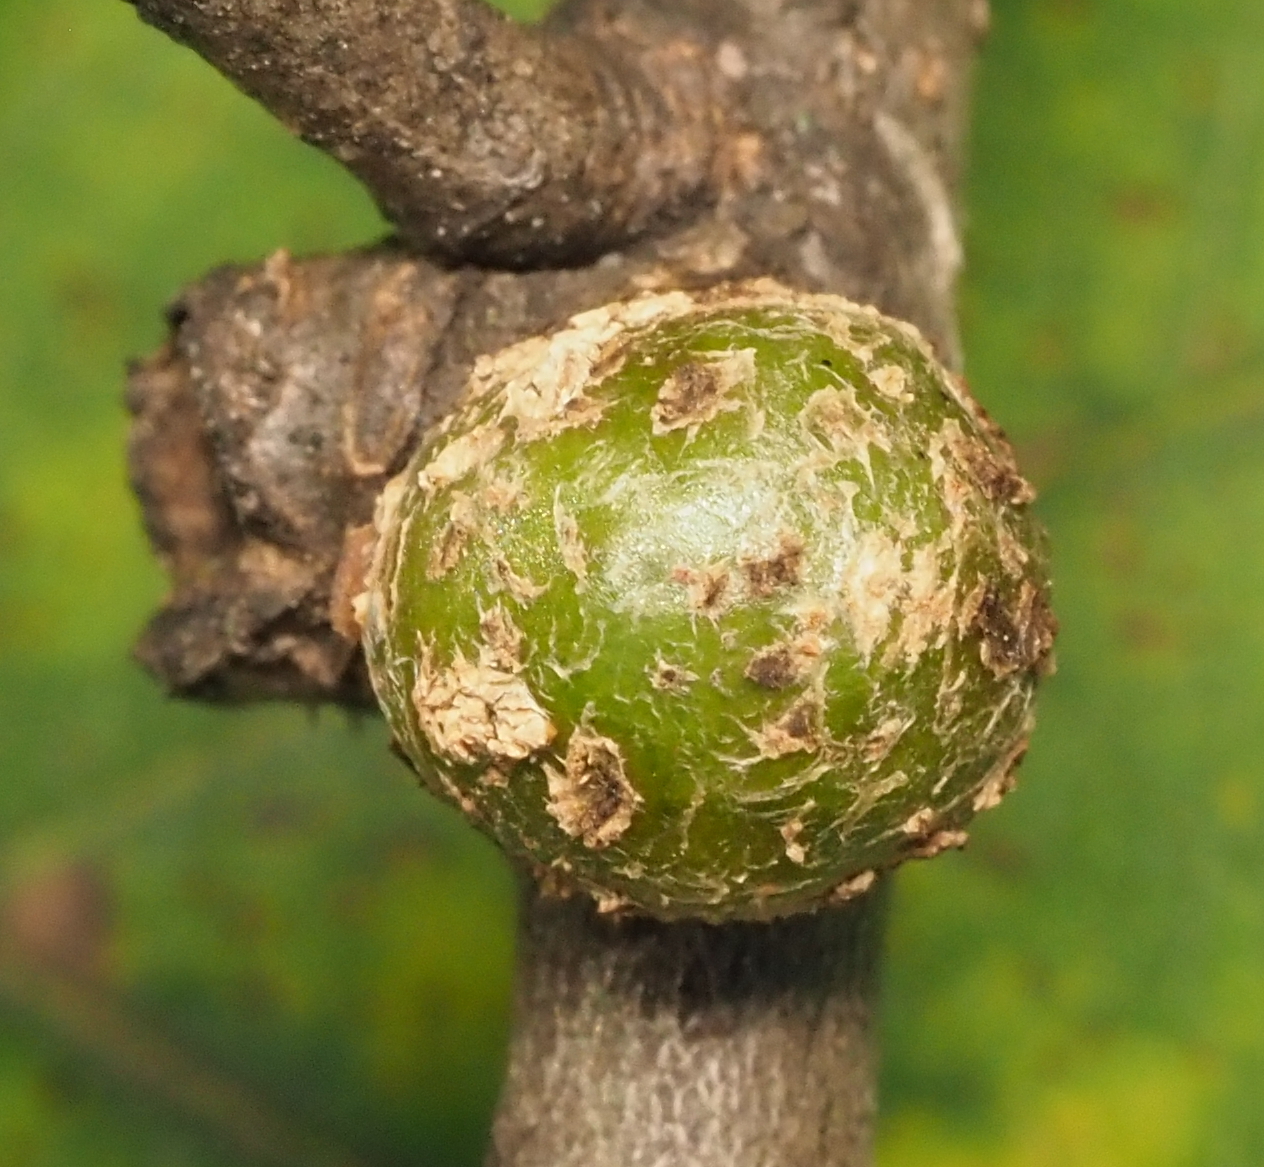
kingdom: Animalia
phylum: Arthropoda
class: Insecta
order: Hymenoptera
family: Cynipidae
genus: Synergus
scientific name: Synergus lignicola
